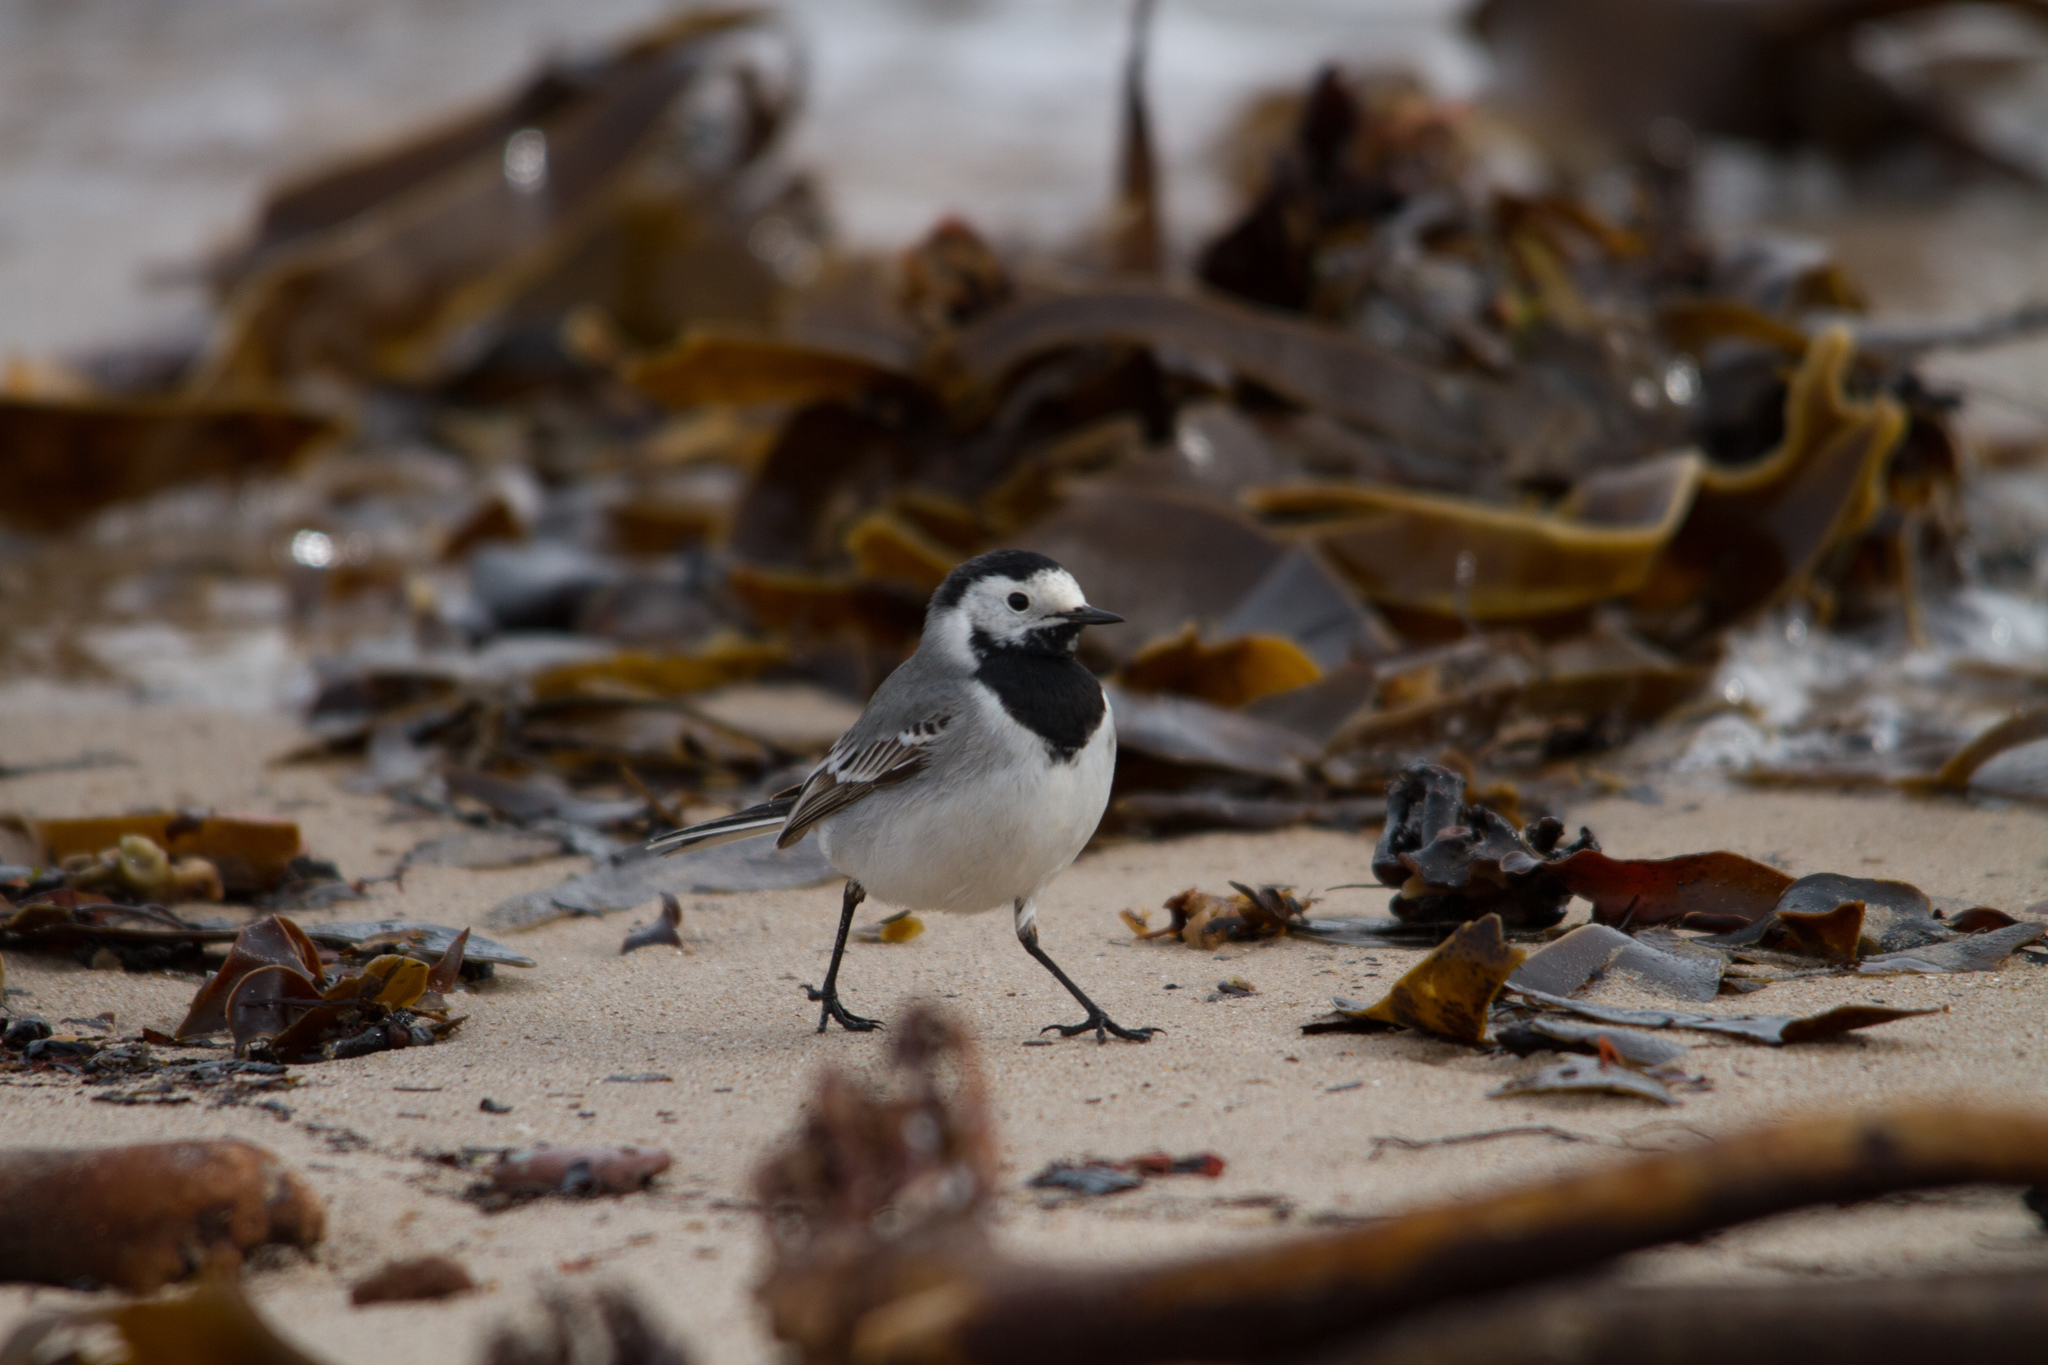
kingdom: Animalia
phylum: Chordata
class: Aves
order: Passeriformes
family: Motacillidae
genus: Motacilla
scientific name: Motacilla alba
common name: White wagtail
